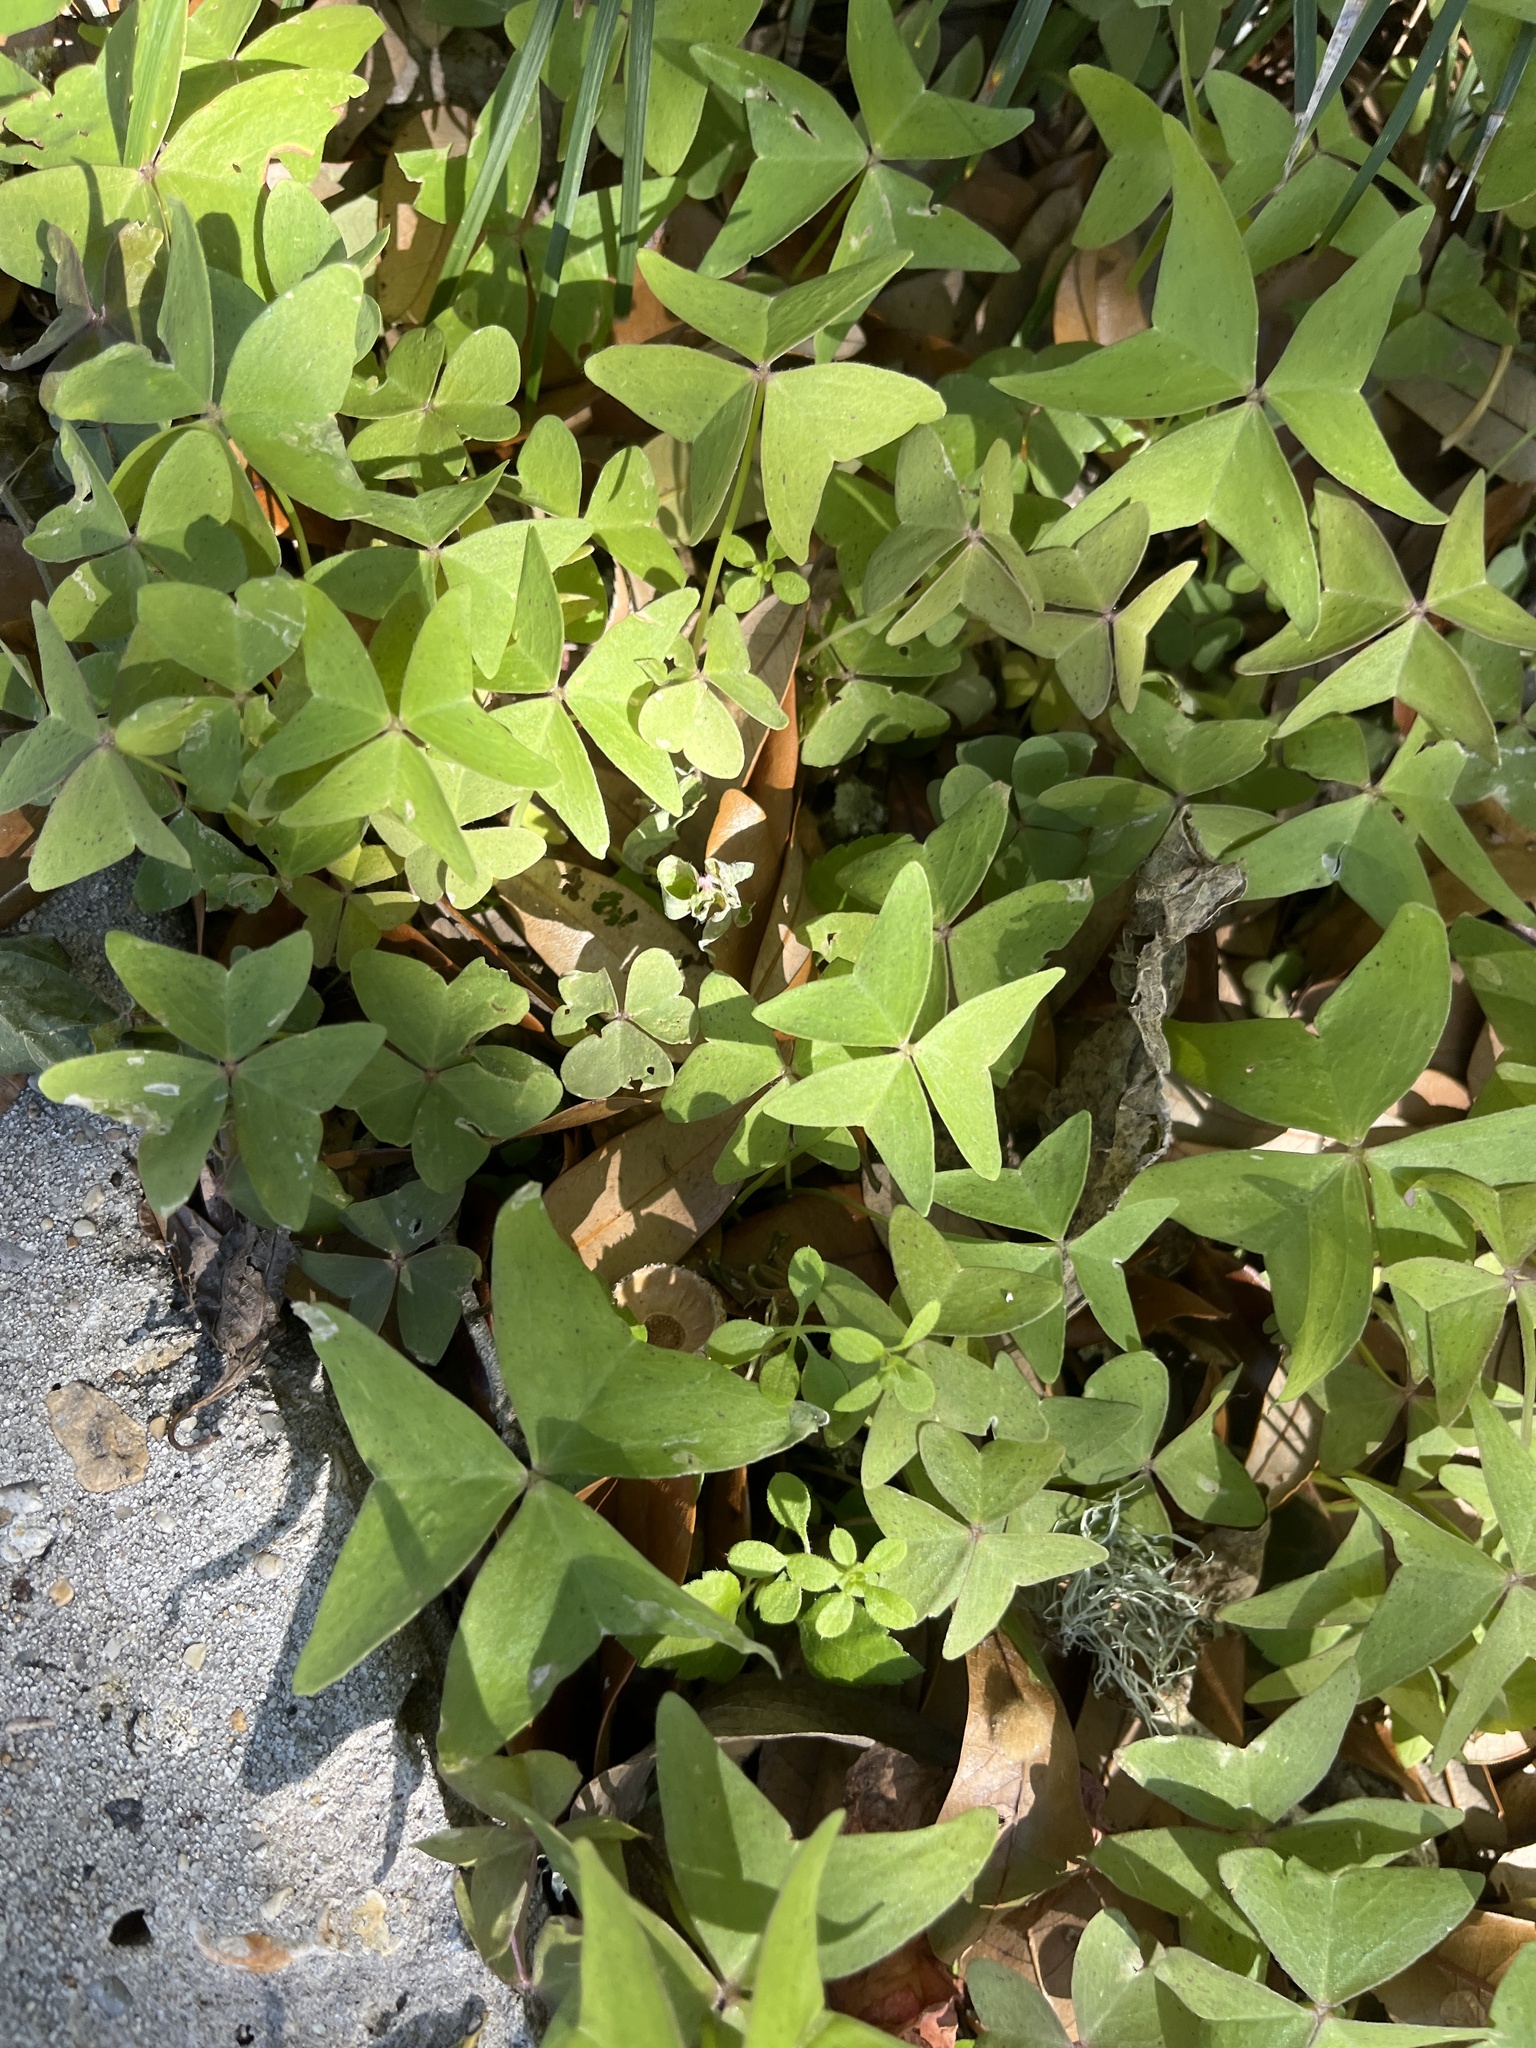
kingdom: Plantae
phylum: Tracheophyta
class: Magnoliopsida
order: Oxalidales
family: Oxalidaceae
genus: Oxalis
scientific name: Oxalis intermedia
